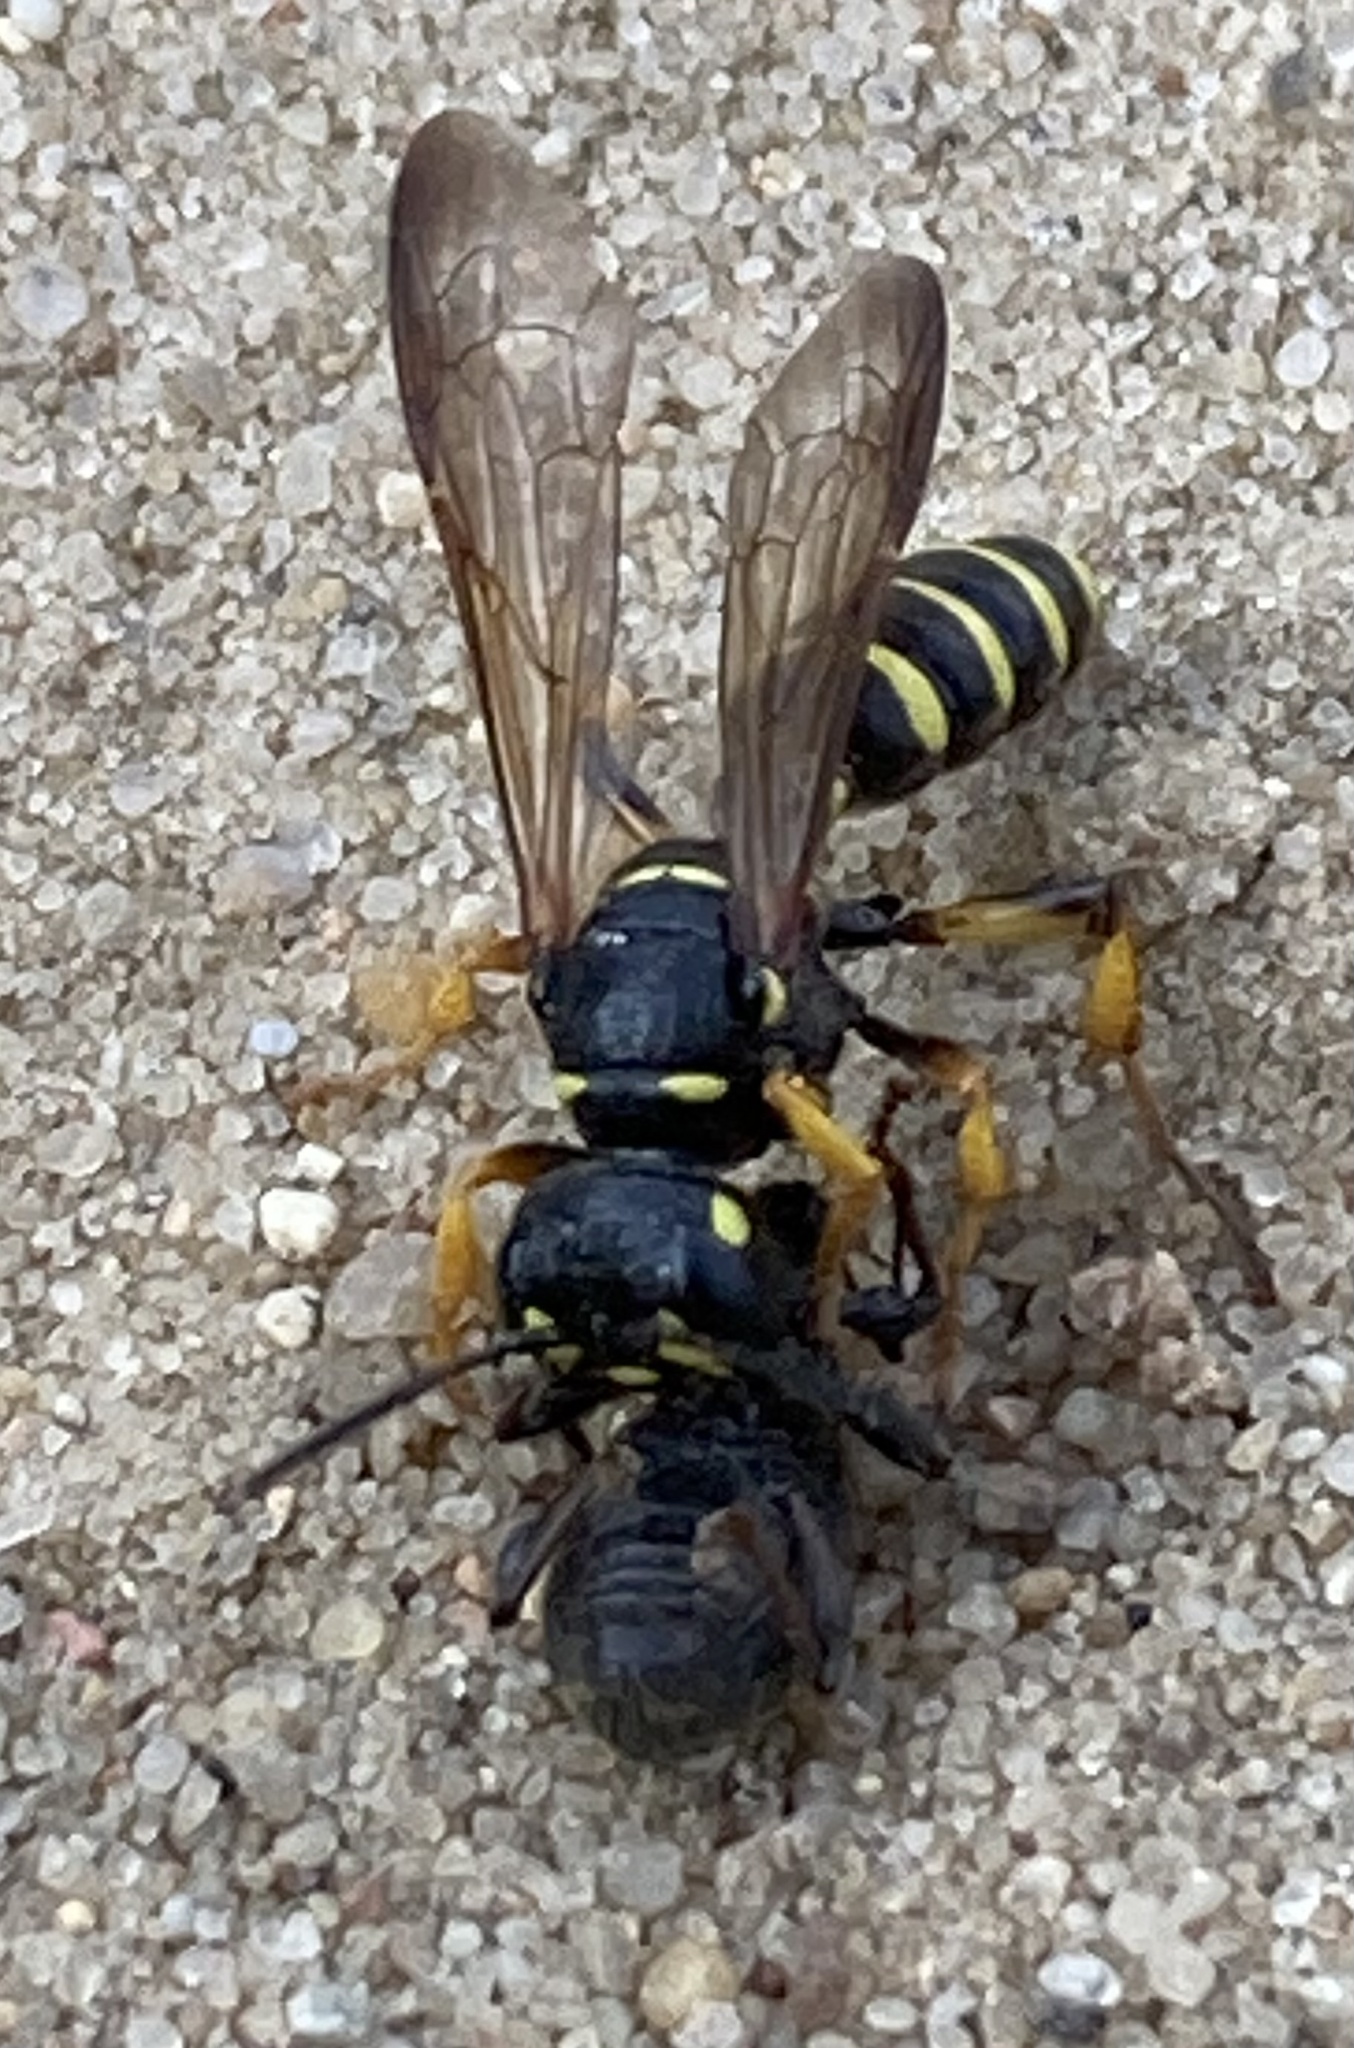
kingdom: Animalia
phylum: Arthropoda
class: Insecta
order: Hymenoptera
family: Crabronidae
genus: Cerceris
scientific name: Cerceris arenaria
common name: Sand tailed digger wasp
